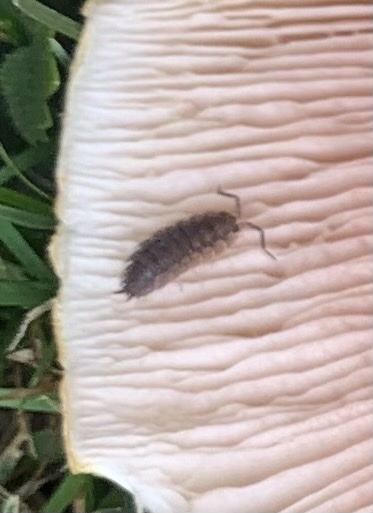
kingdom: Animalia
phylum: Arthropoda
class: Malacostraca
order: Isopoda
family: Porcellionidae
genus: Porcellio
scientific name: Porcellio scaber
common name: Common rough woodlouse
